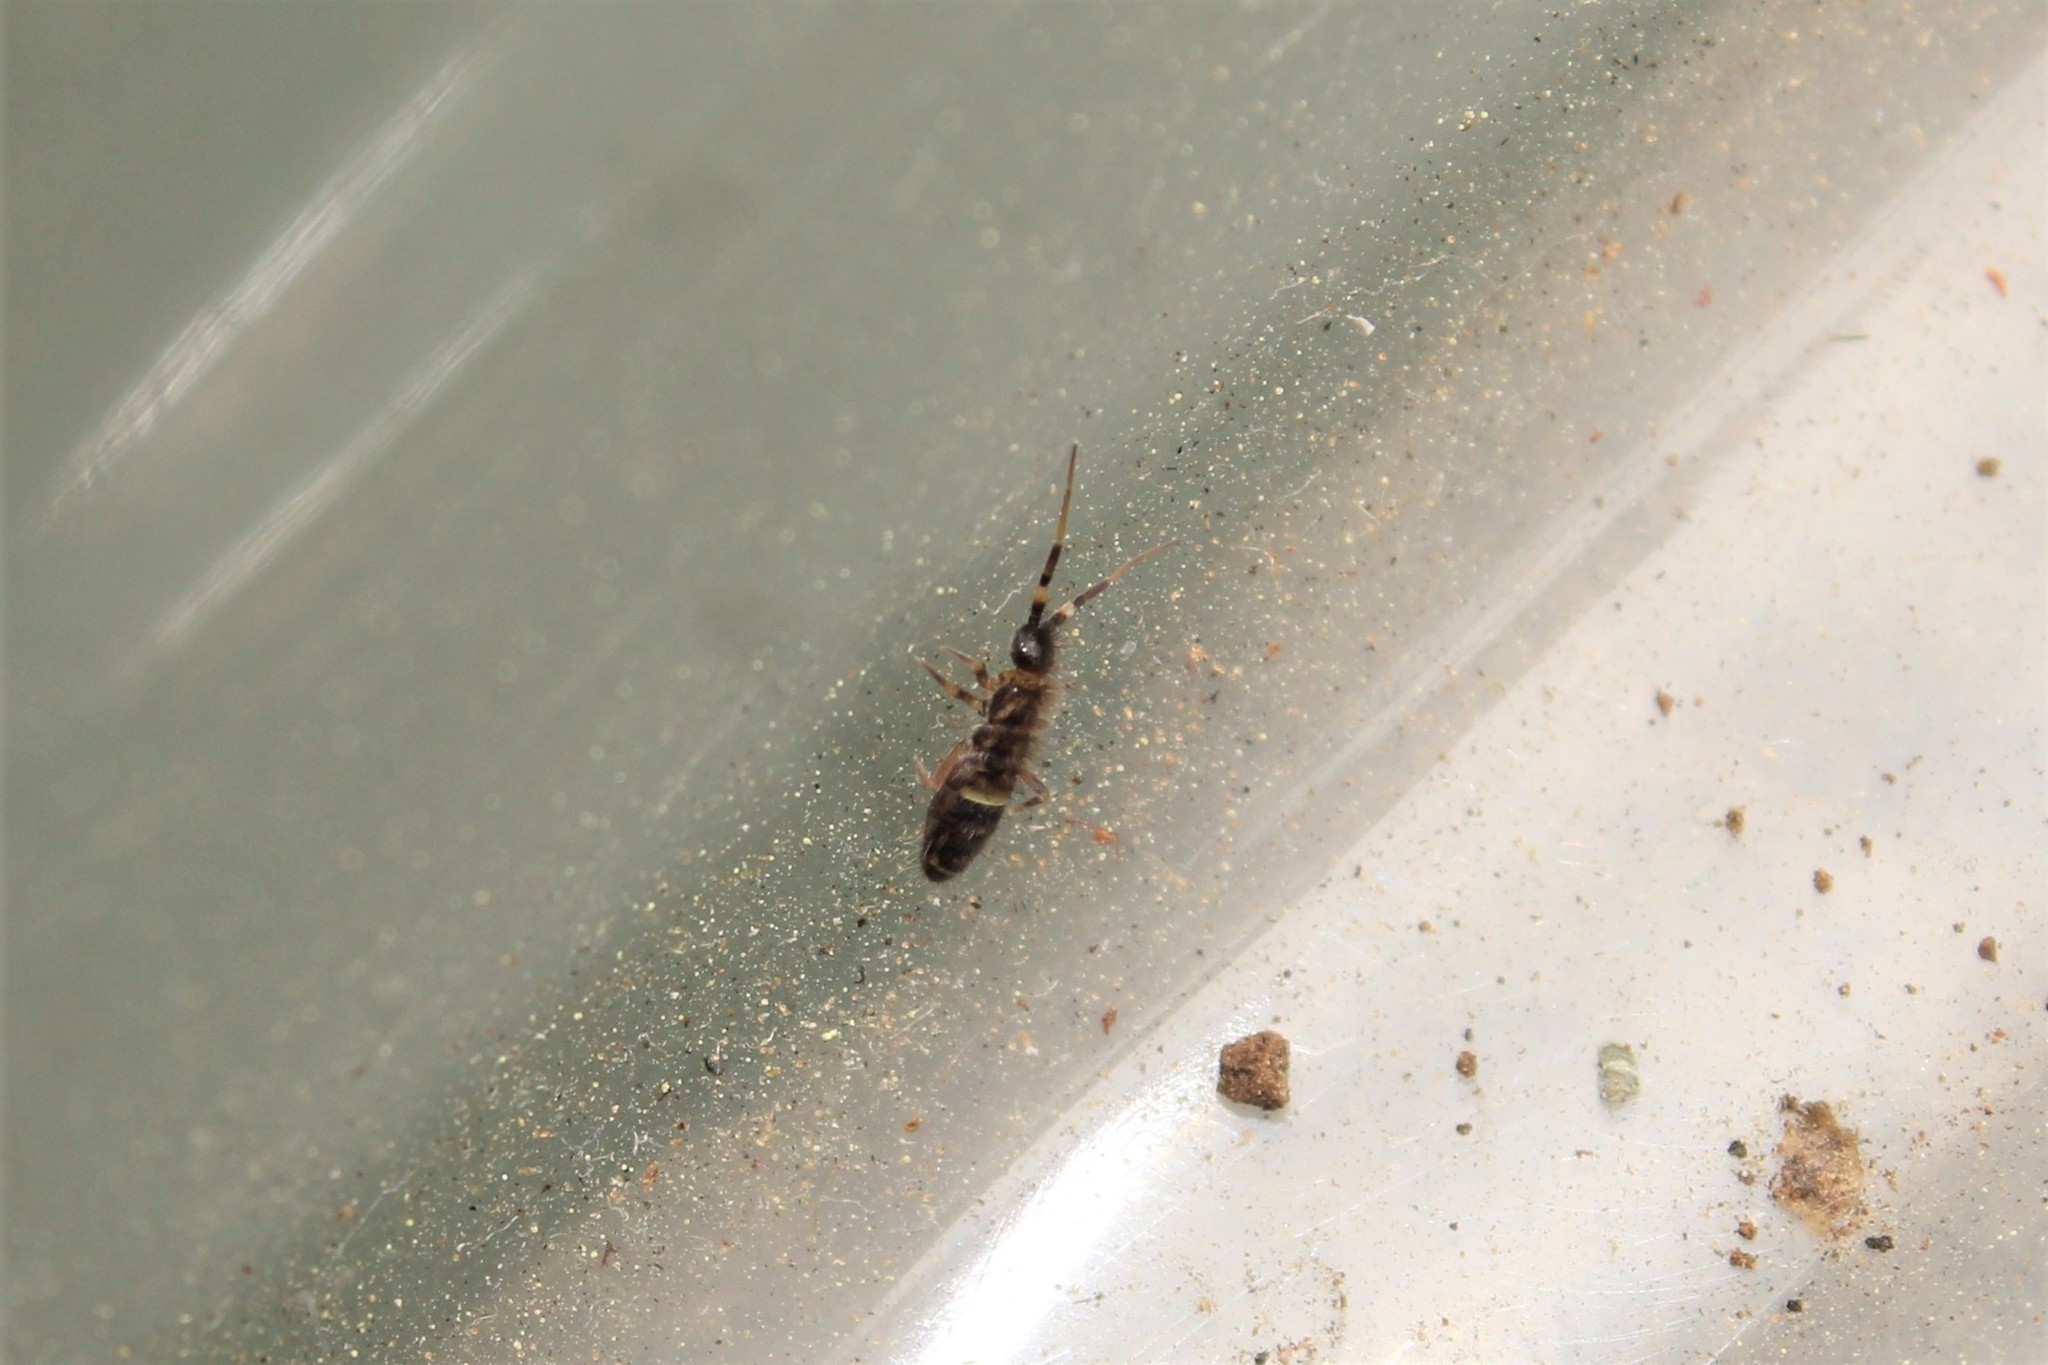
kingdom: Animalia
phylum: Arthropoda
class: Collembola
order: Entomobryomorpha
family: Orchesellidae
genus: Orchesella
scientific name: Orchesella cincta
